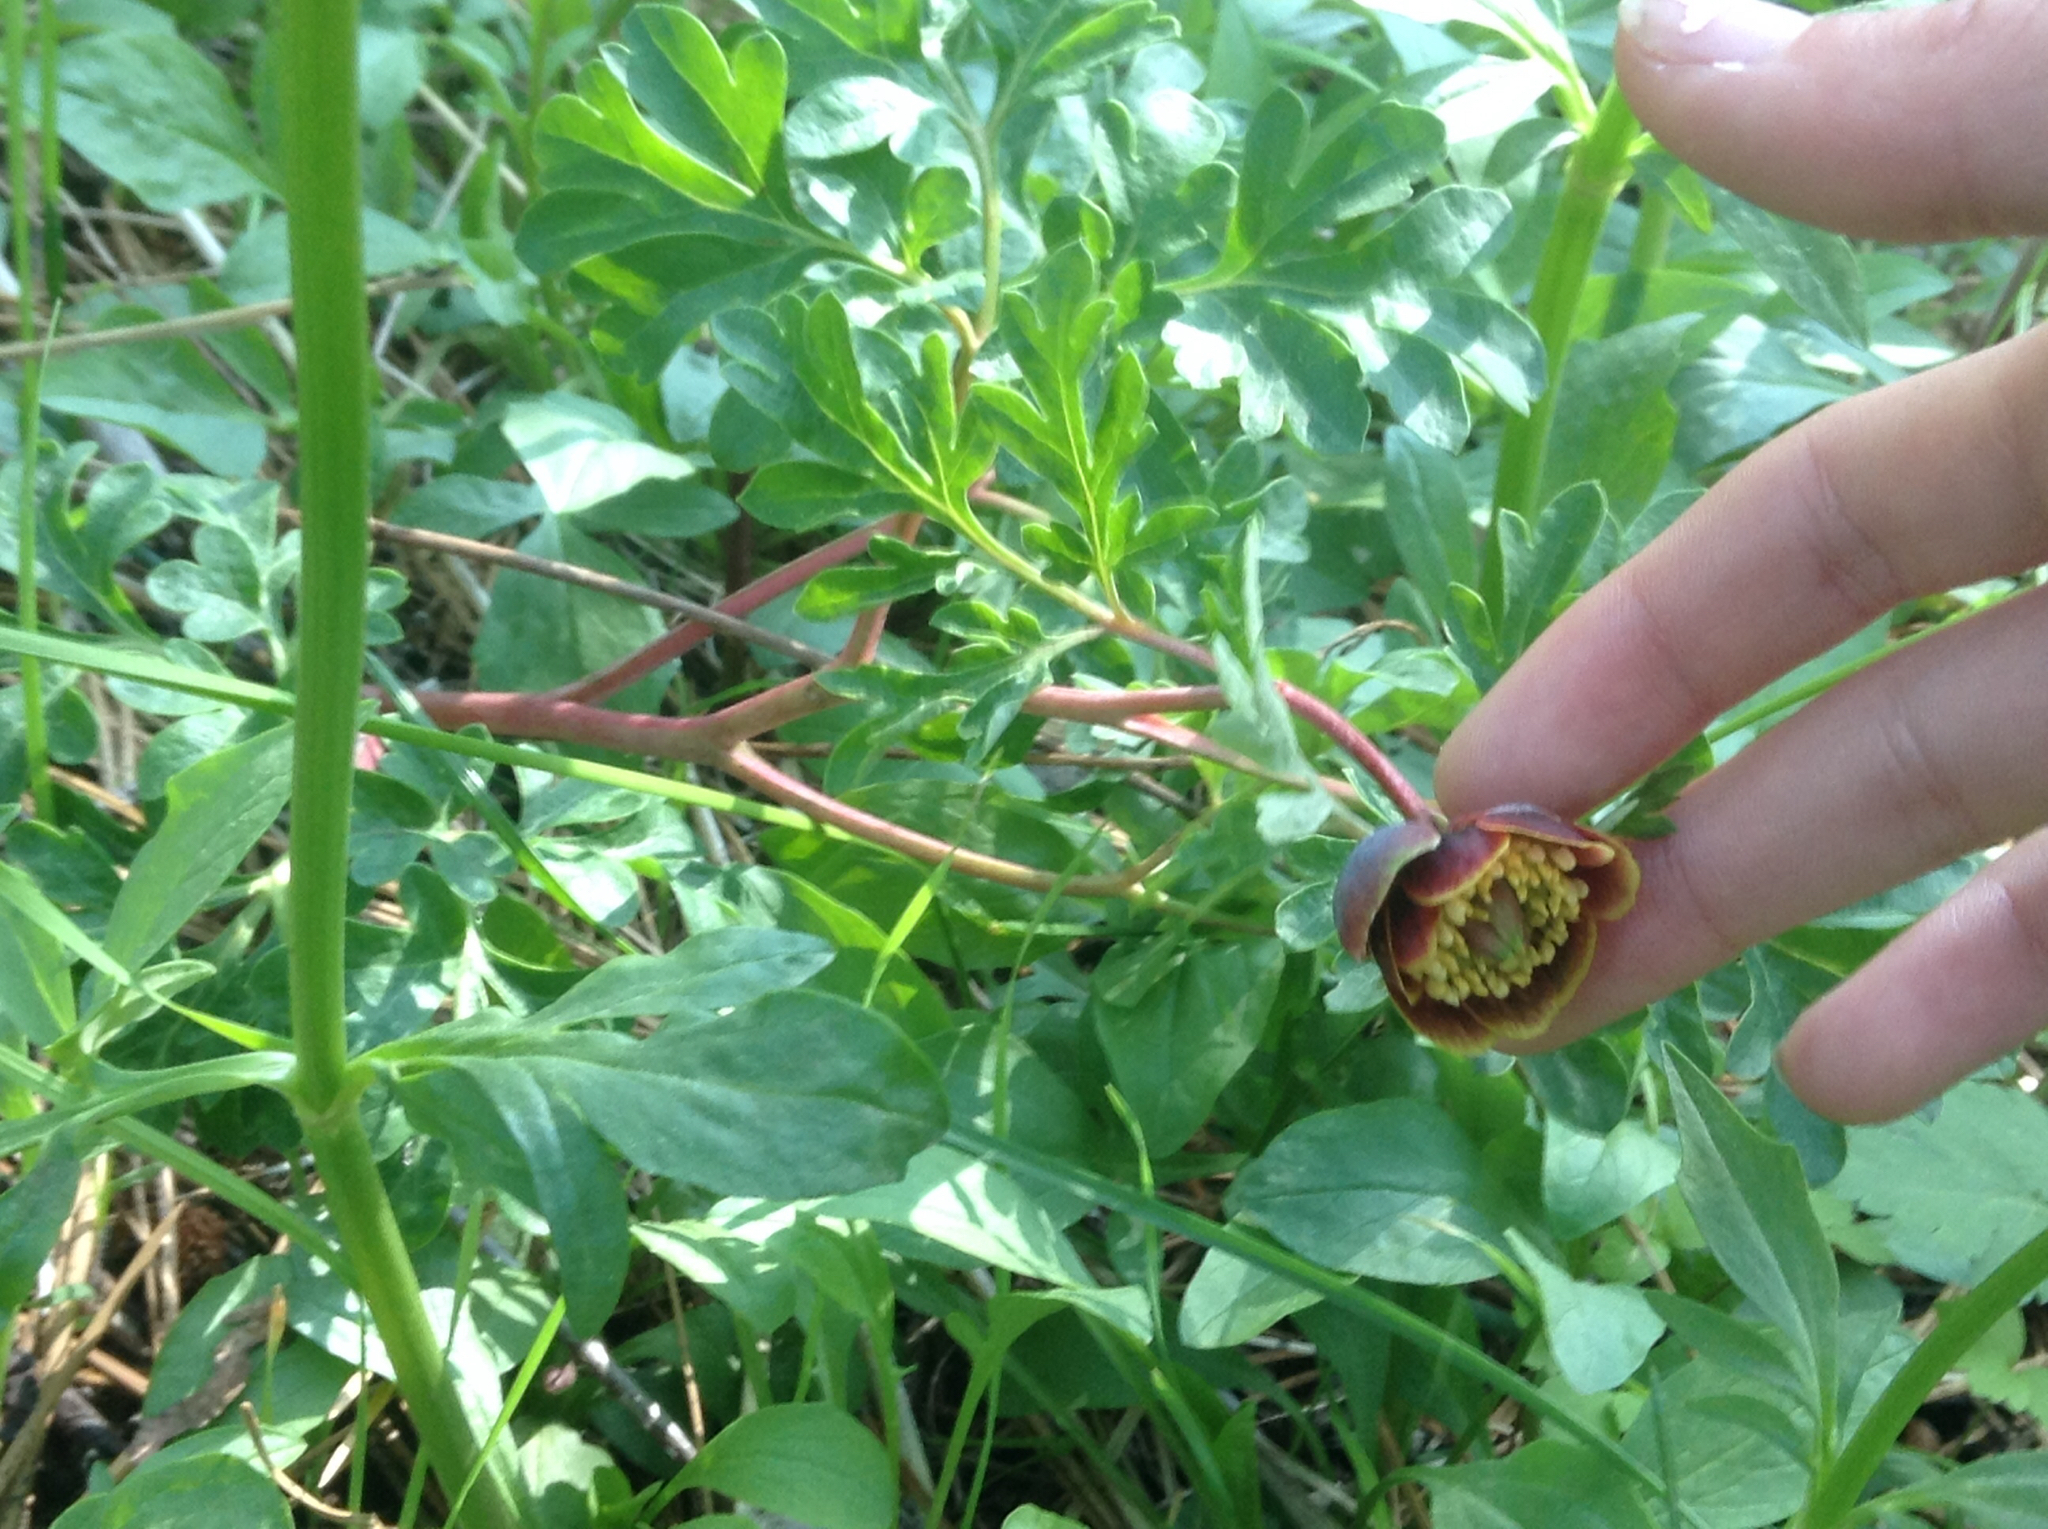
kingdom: Plantae
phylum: Tracheophyta
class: Magnoliopsida
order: Saxifragales
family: Paeoniaceae
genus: Paeonia
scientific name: Paeonia brownii
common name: Brown's peony
